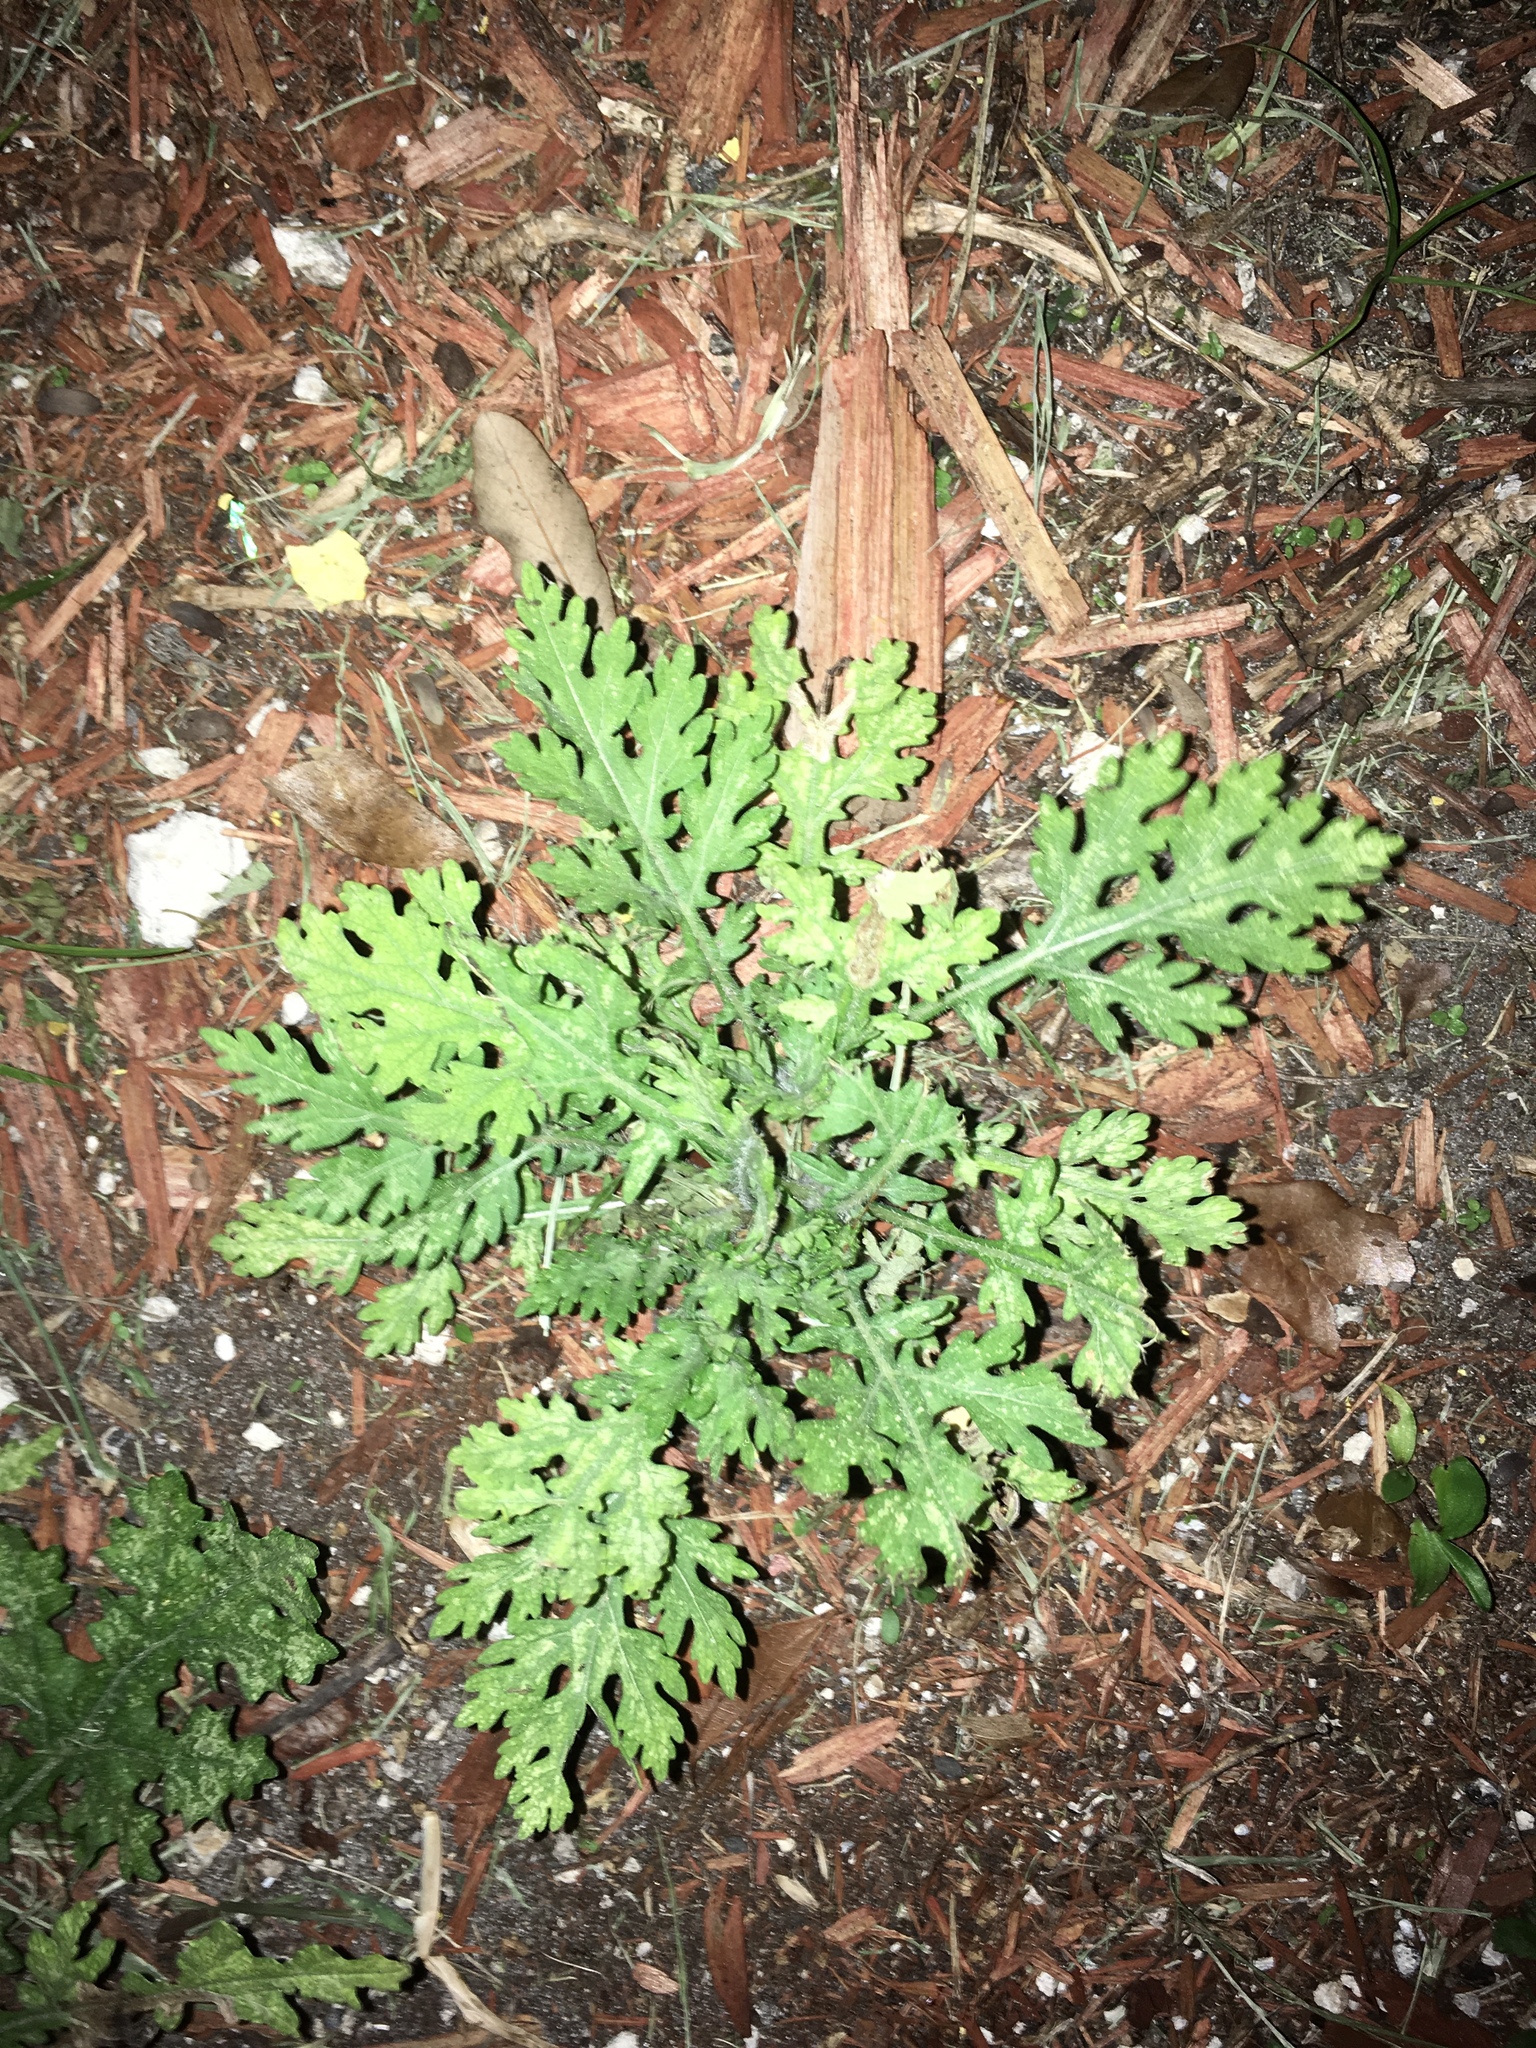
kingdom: Plantae
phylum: Tracheophyta
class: Magnoliopsida
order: Asterales
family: Asteraceae
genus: Parthenium
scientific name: Parthenium hysterophorus
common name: Santa maria feverfew
